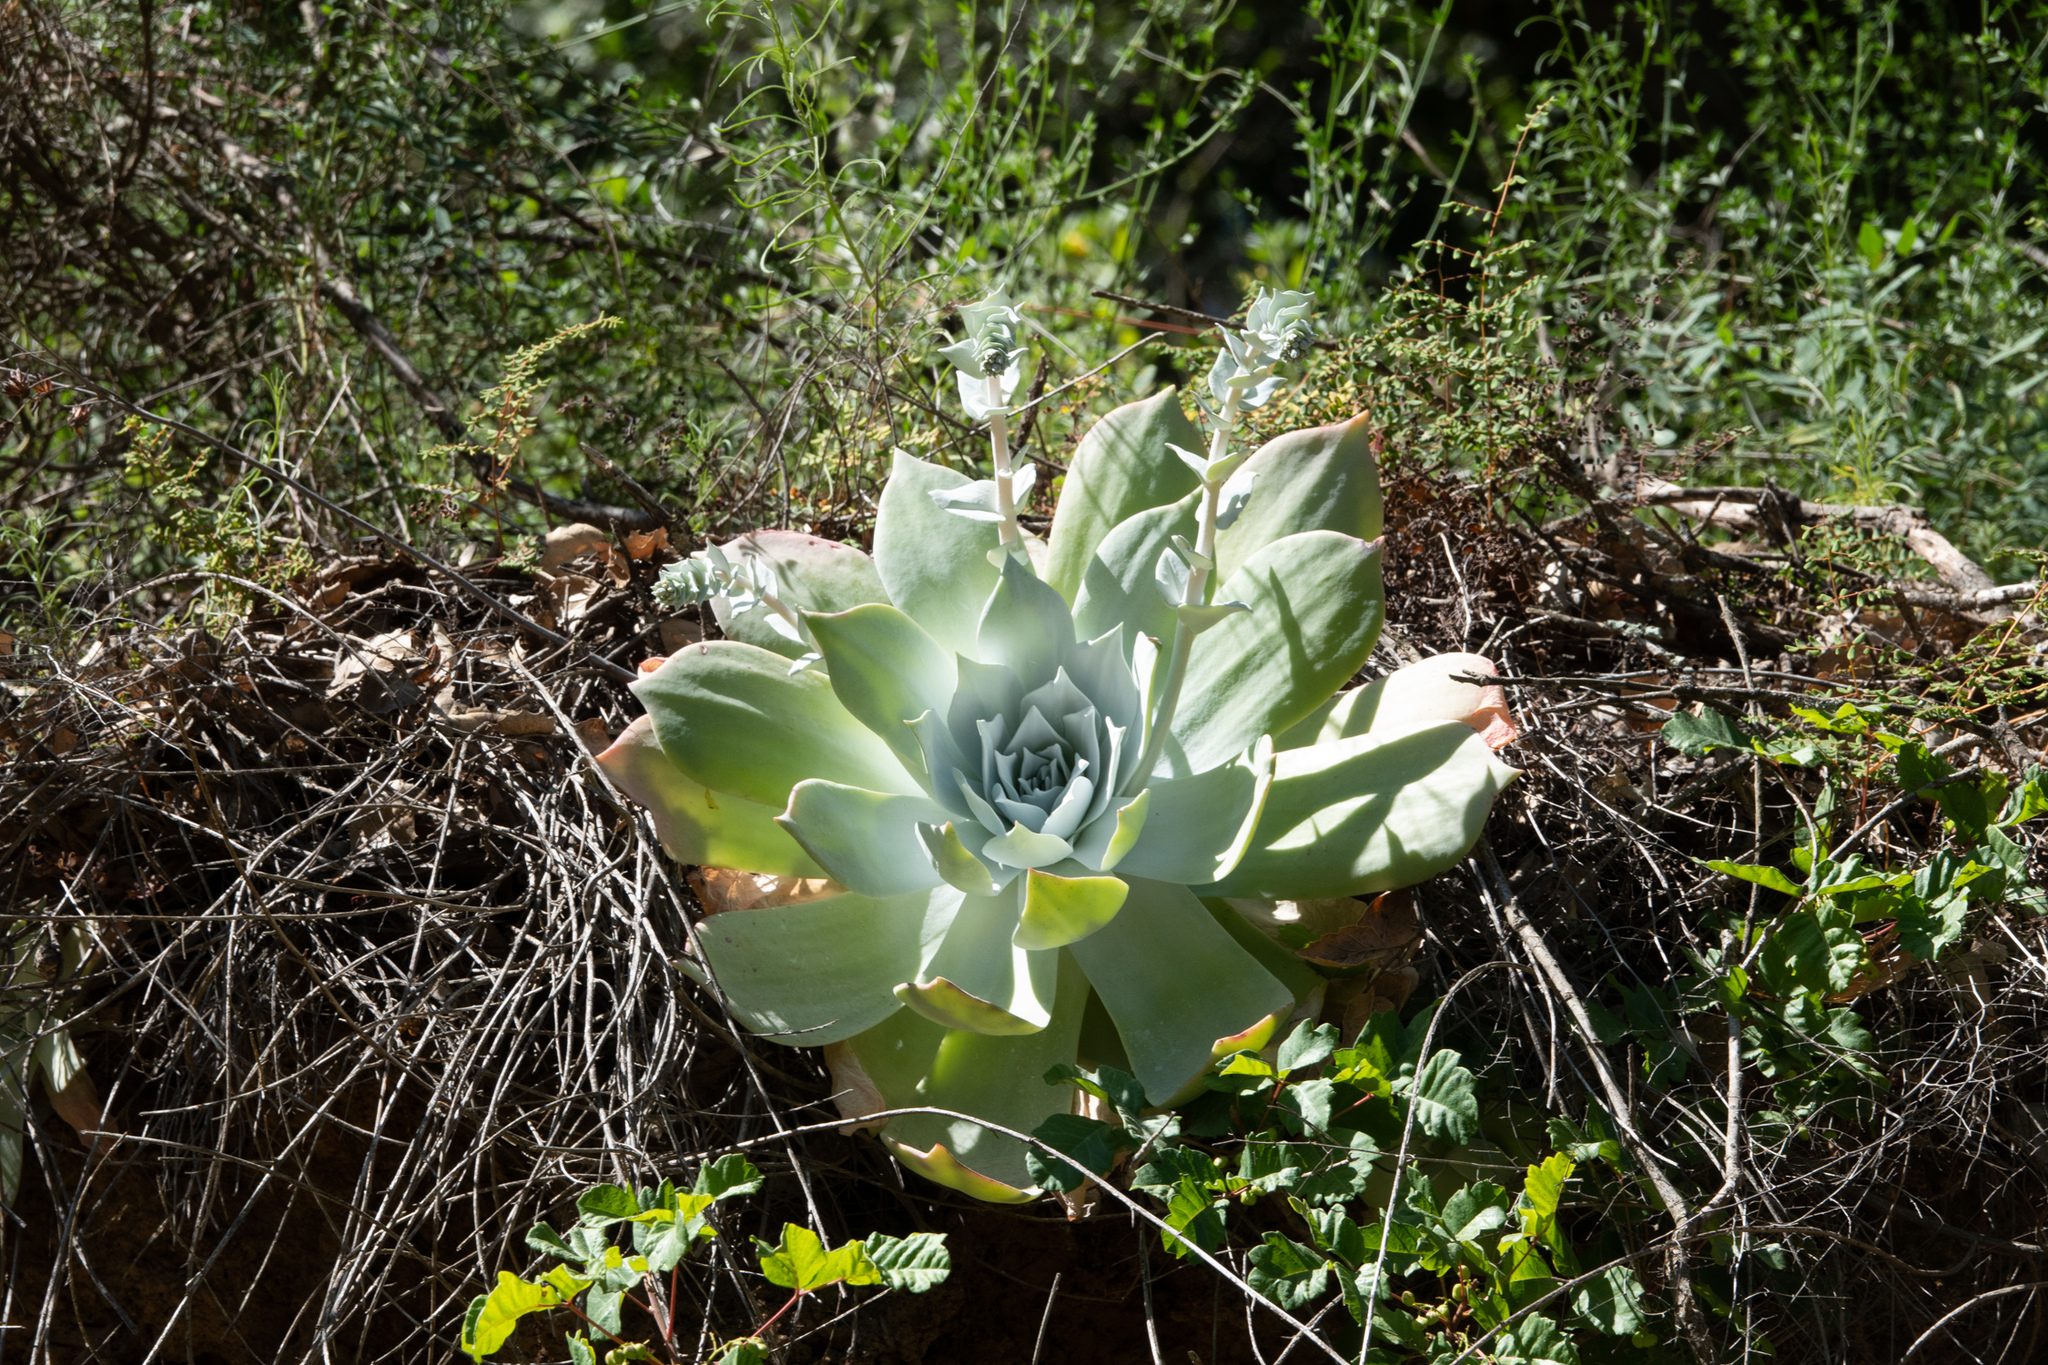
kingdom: Plantae
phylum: Tracheophyta
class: Magnoliopsida
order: Saxifragales
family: Crassulaceae
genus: Dudleya
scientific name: Dudleya pulverulenta
